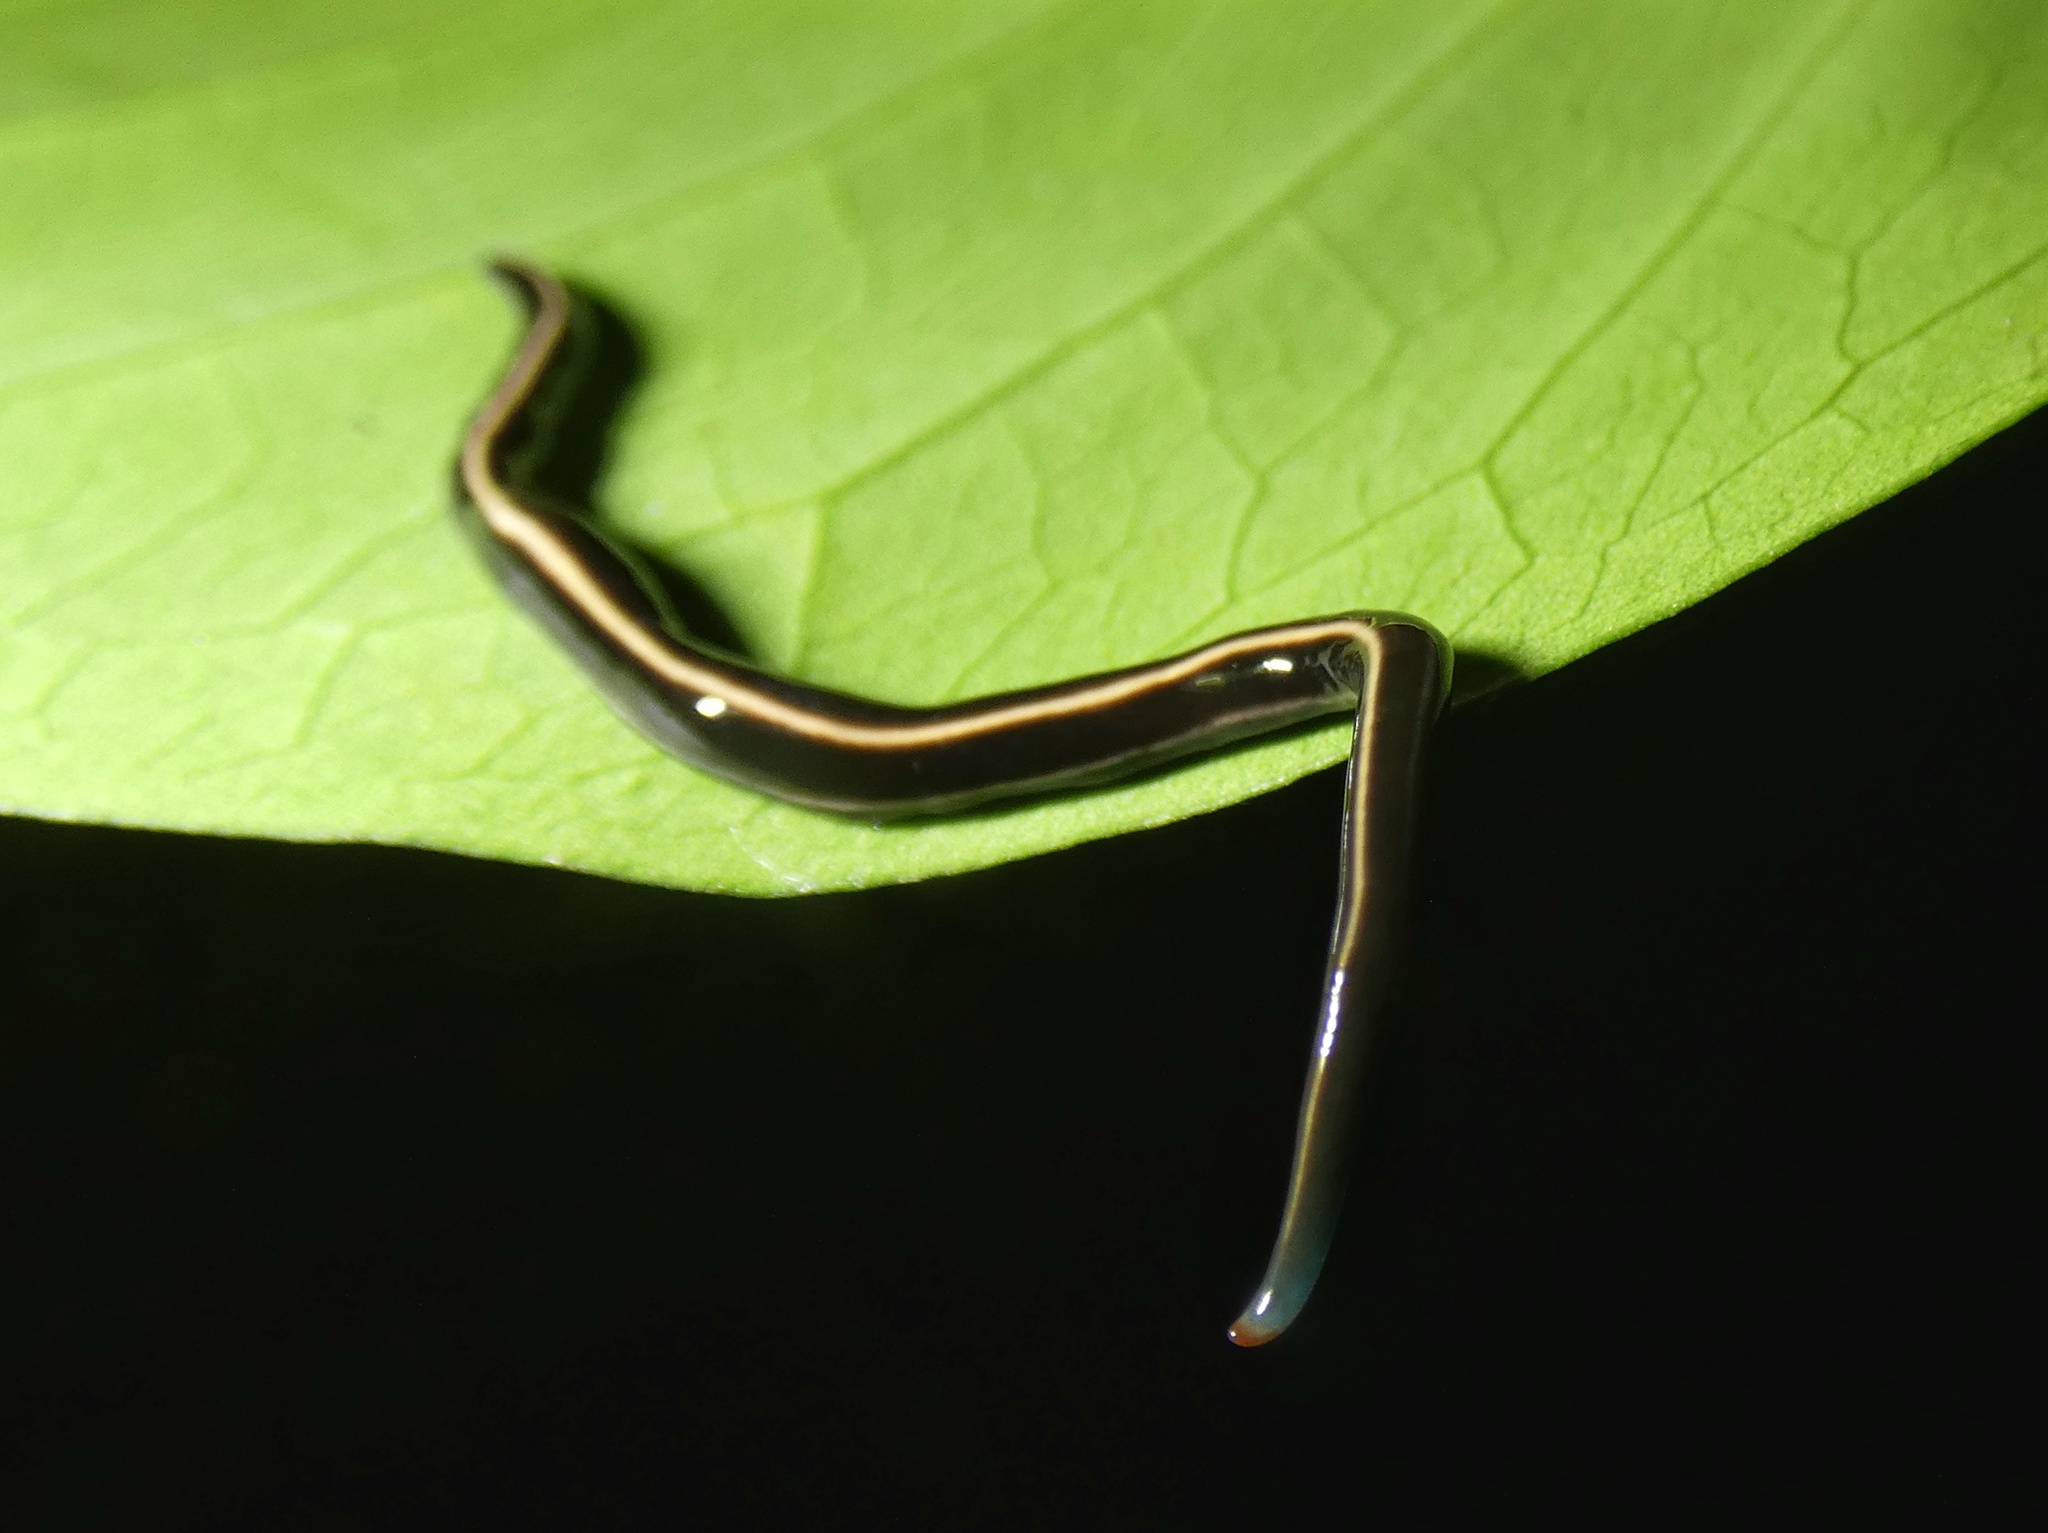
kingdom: Animalia
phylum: Platyhelminthes
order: Tricladida
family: Geoplanidae
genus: Caenoplana
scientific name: Caenoplana coerulea
